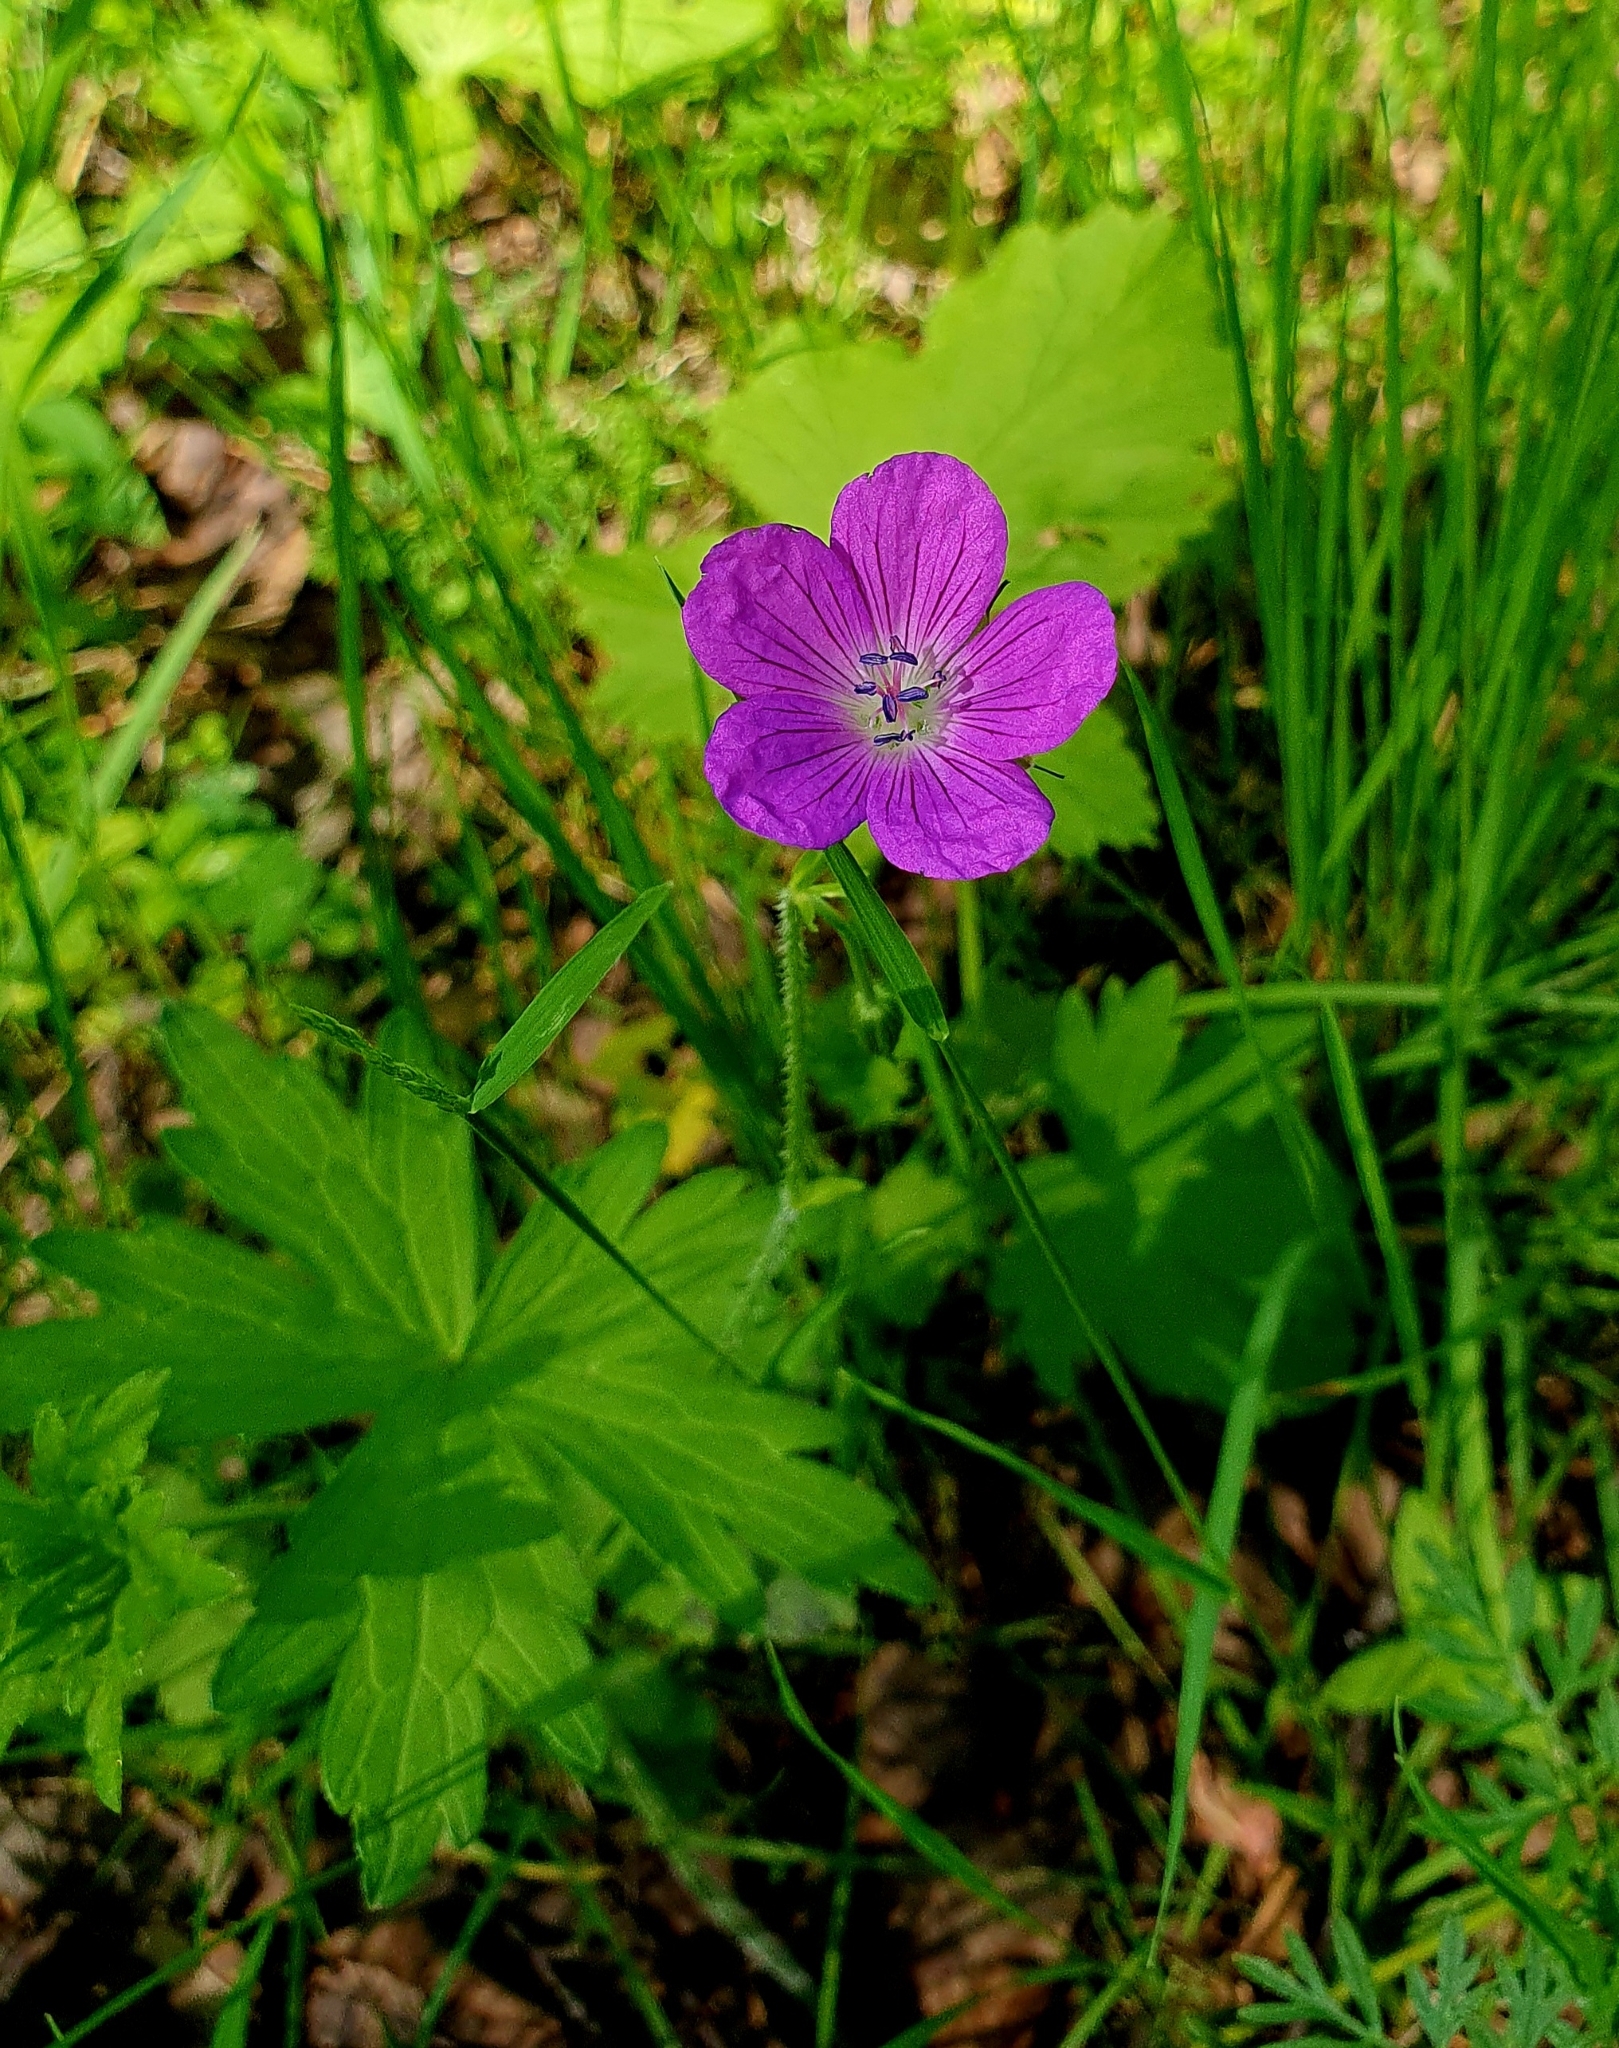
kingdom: Plantae
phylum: Tracheophyta
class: Magnoliopsida
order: Geraniales
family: Geraniaceae
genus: Geranium
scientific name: Geranium palustre
